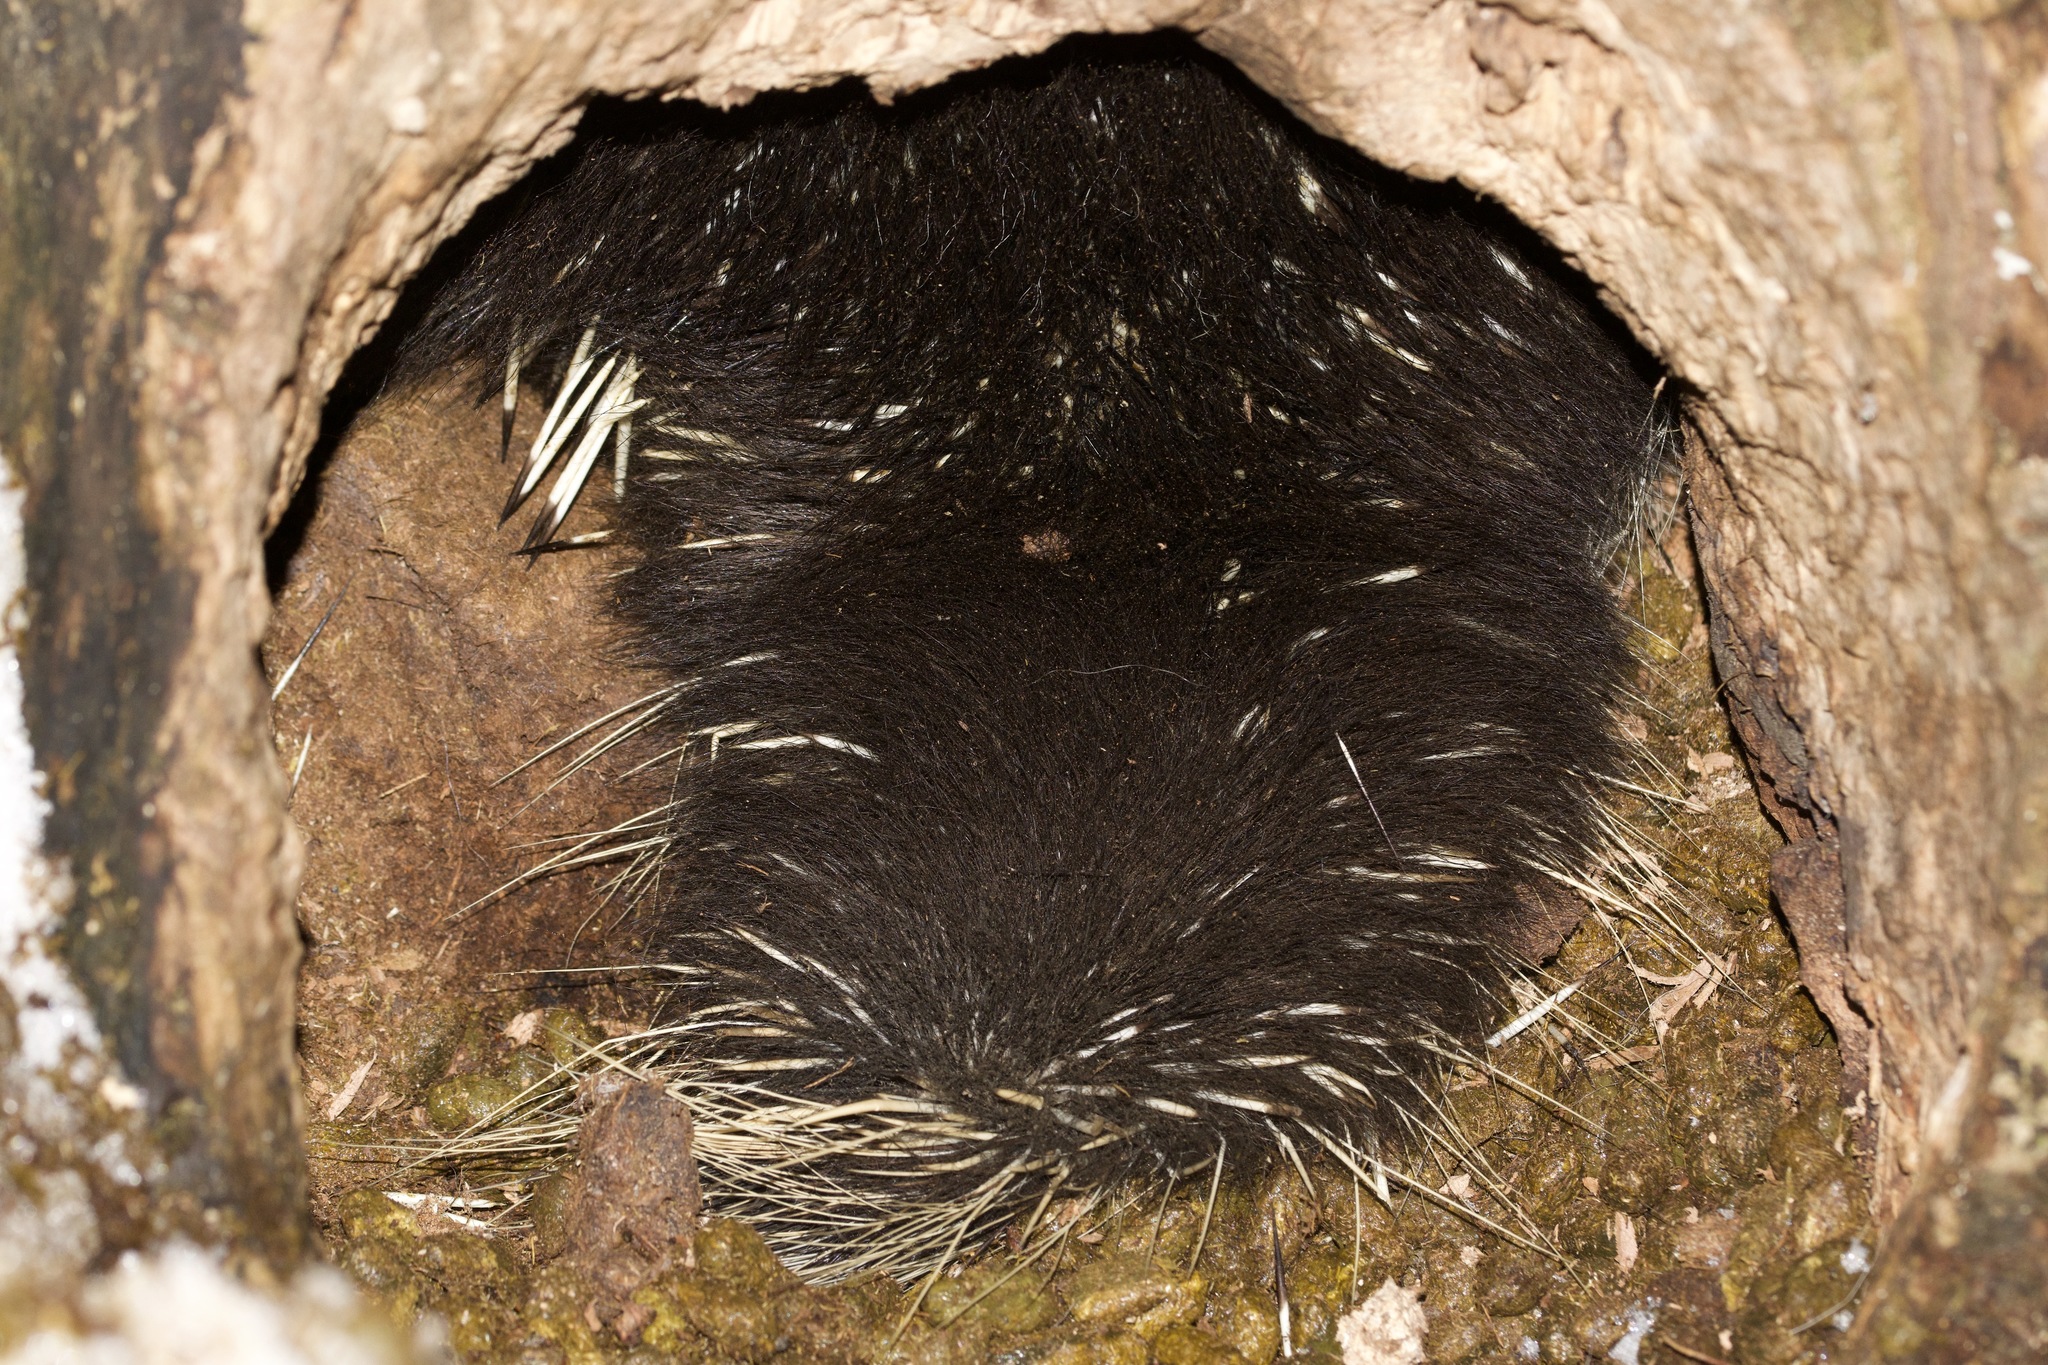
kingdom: Animalia
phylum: Chordata
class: Mammalia
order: Rodentia
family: Erethizontidae
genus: Erethizon
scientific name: Erethizon dorsatus
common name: North american porcupine
